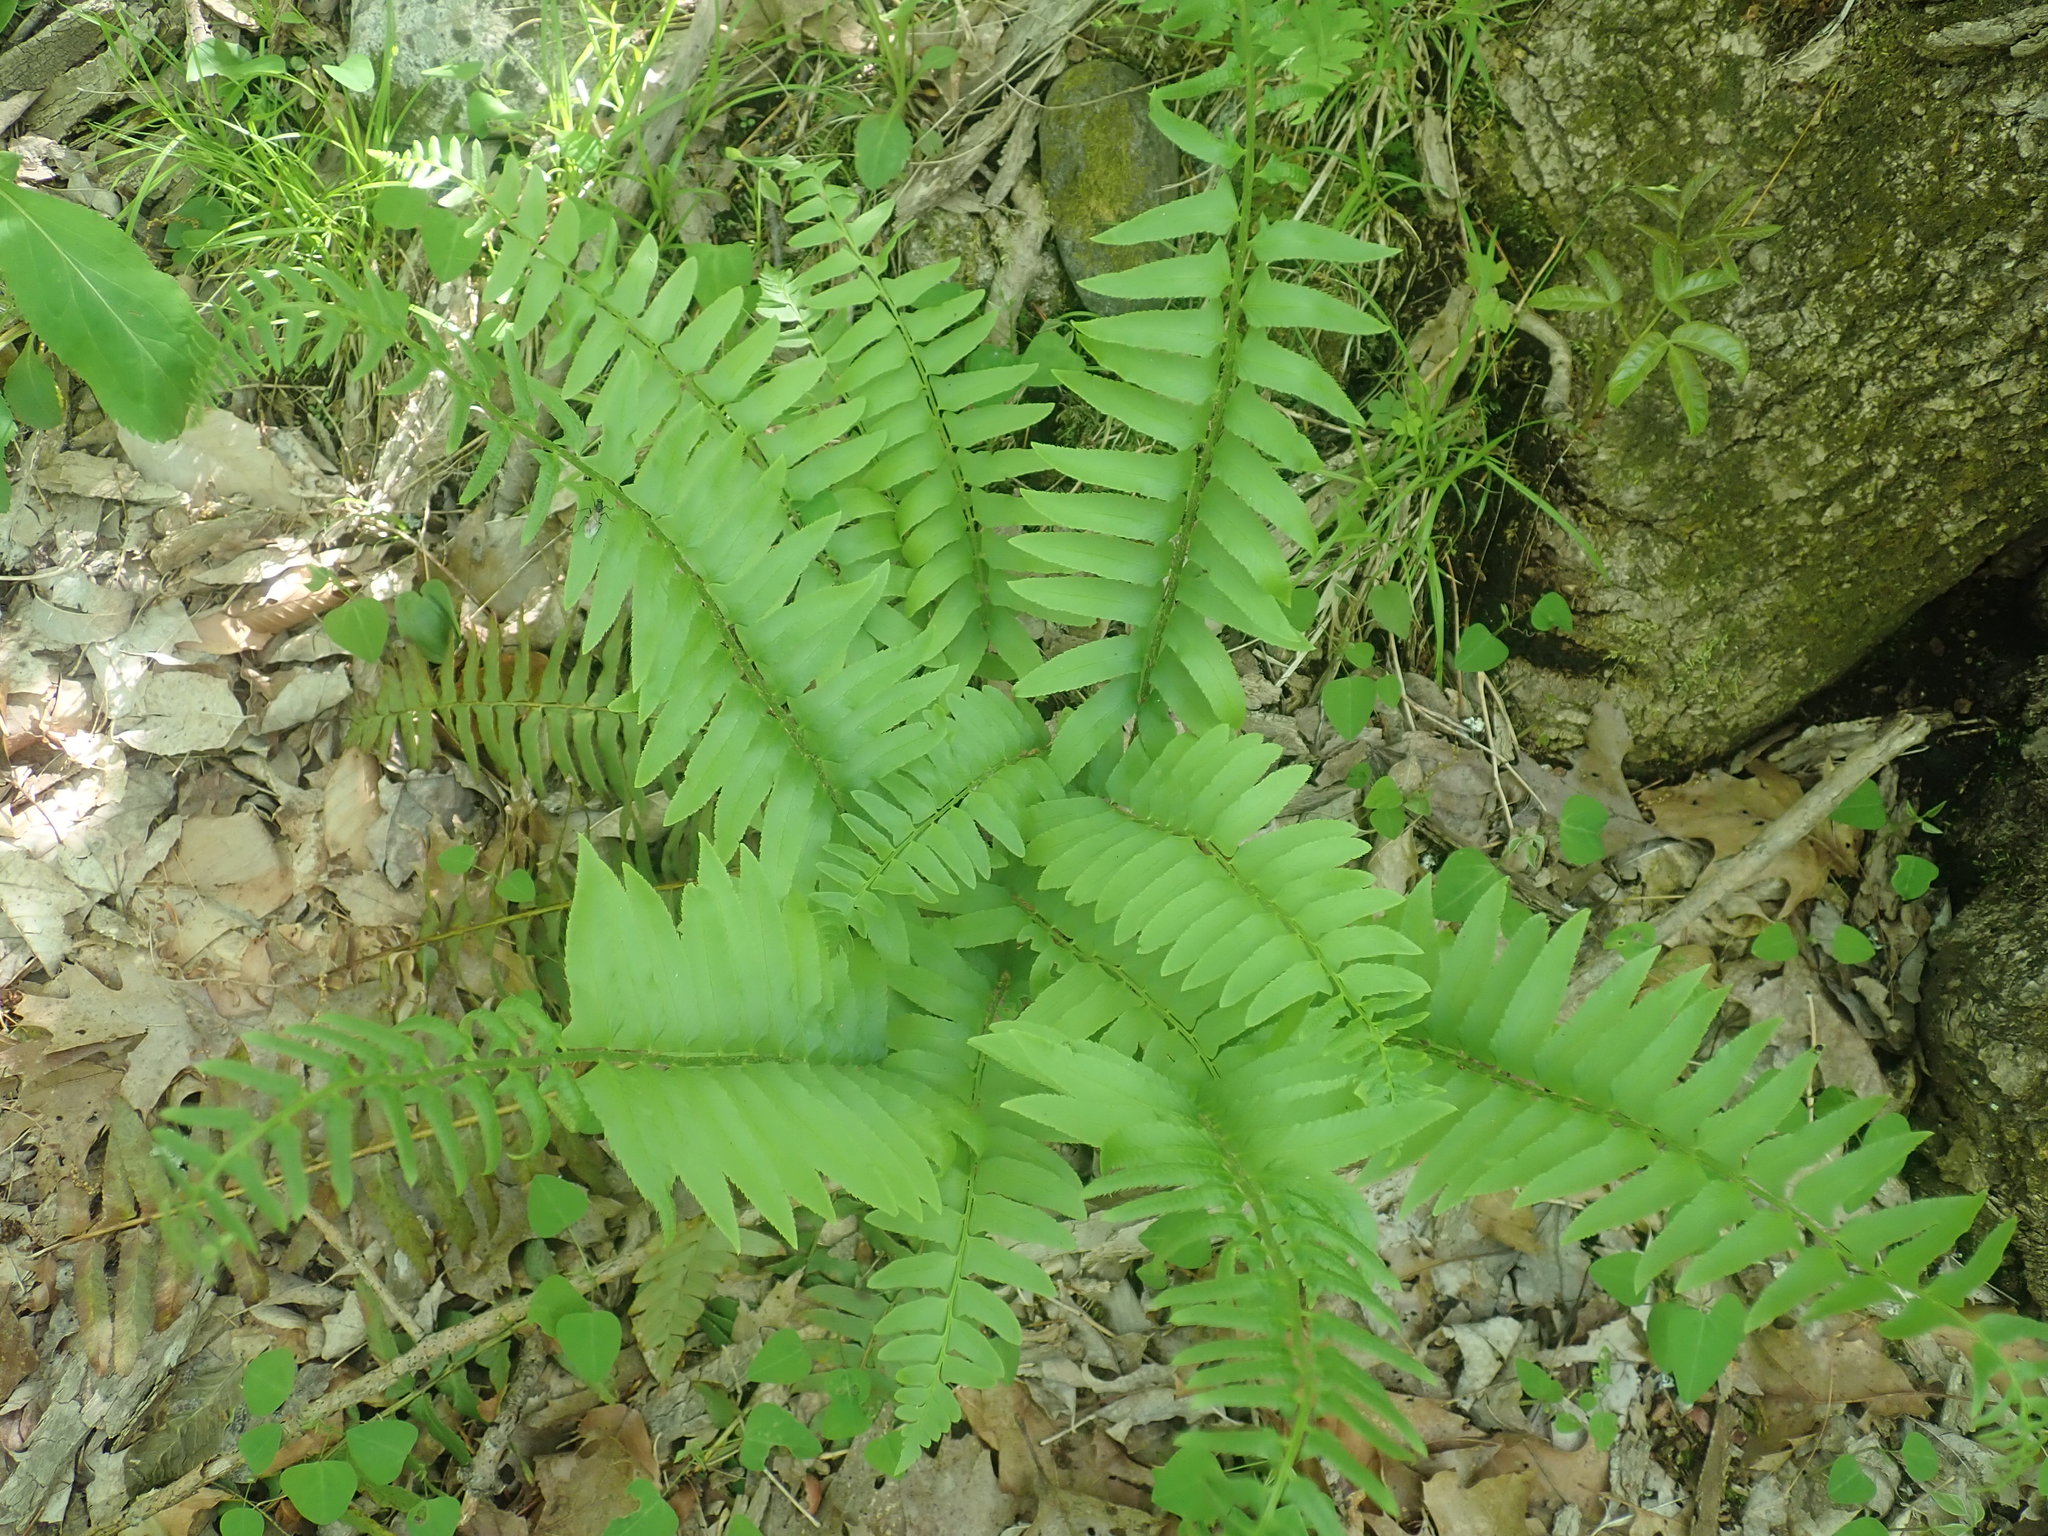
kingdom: Plantae
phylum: Tracheophyta
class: Polypodiopsida
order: Polypodiales
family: Dryopteridaceae
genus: Polystichum
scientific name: Polystichum acrostichoides
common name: Christmas fern
